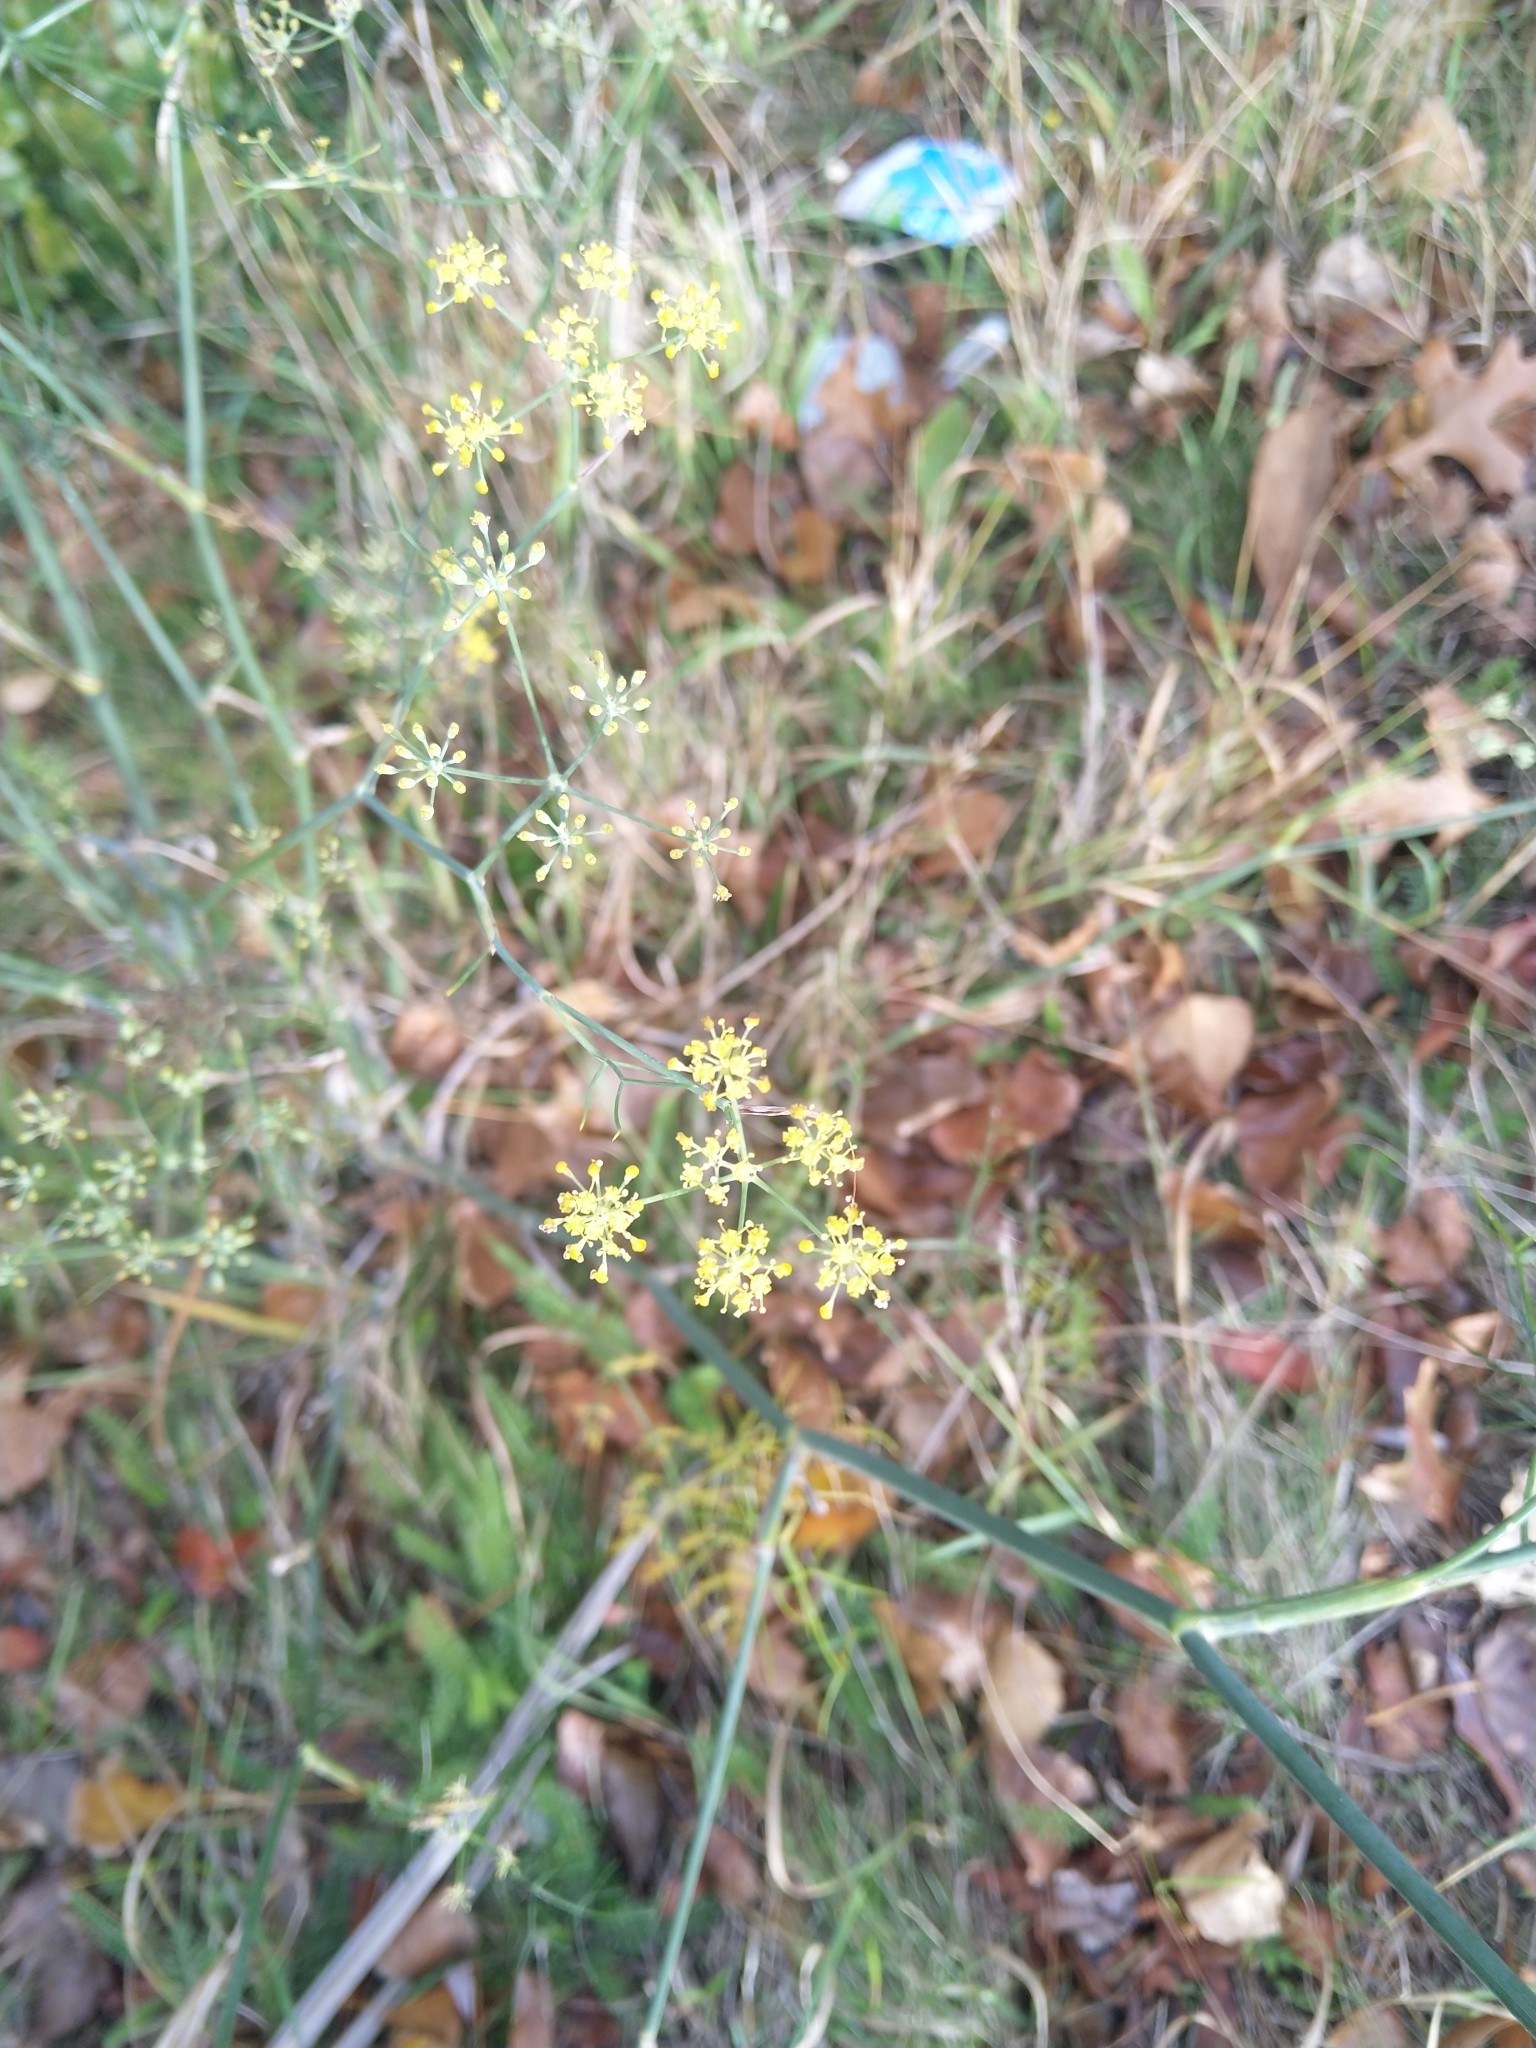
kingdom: Plantae
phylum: Tracheophyta
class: Magnoliopsida
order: Apiales
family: Apiaceae
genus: Foeniculum
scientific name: Foeniculum vulgare
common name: Fennel
